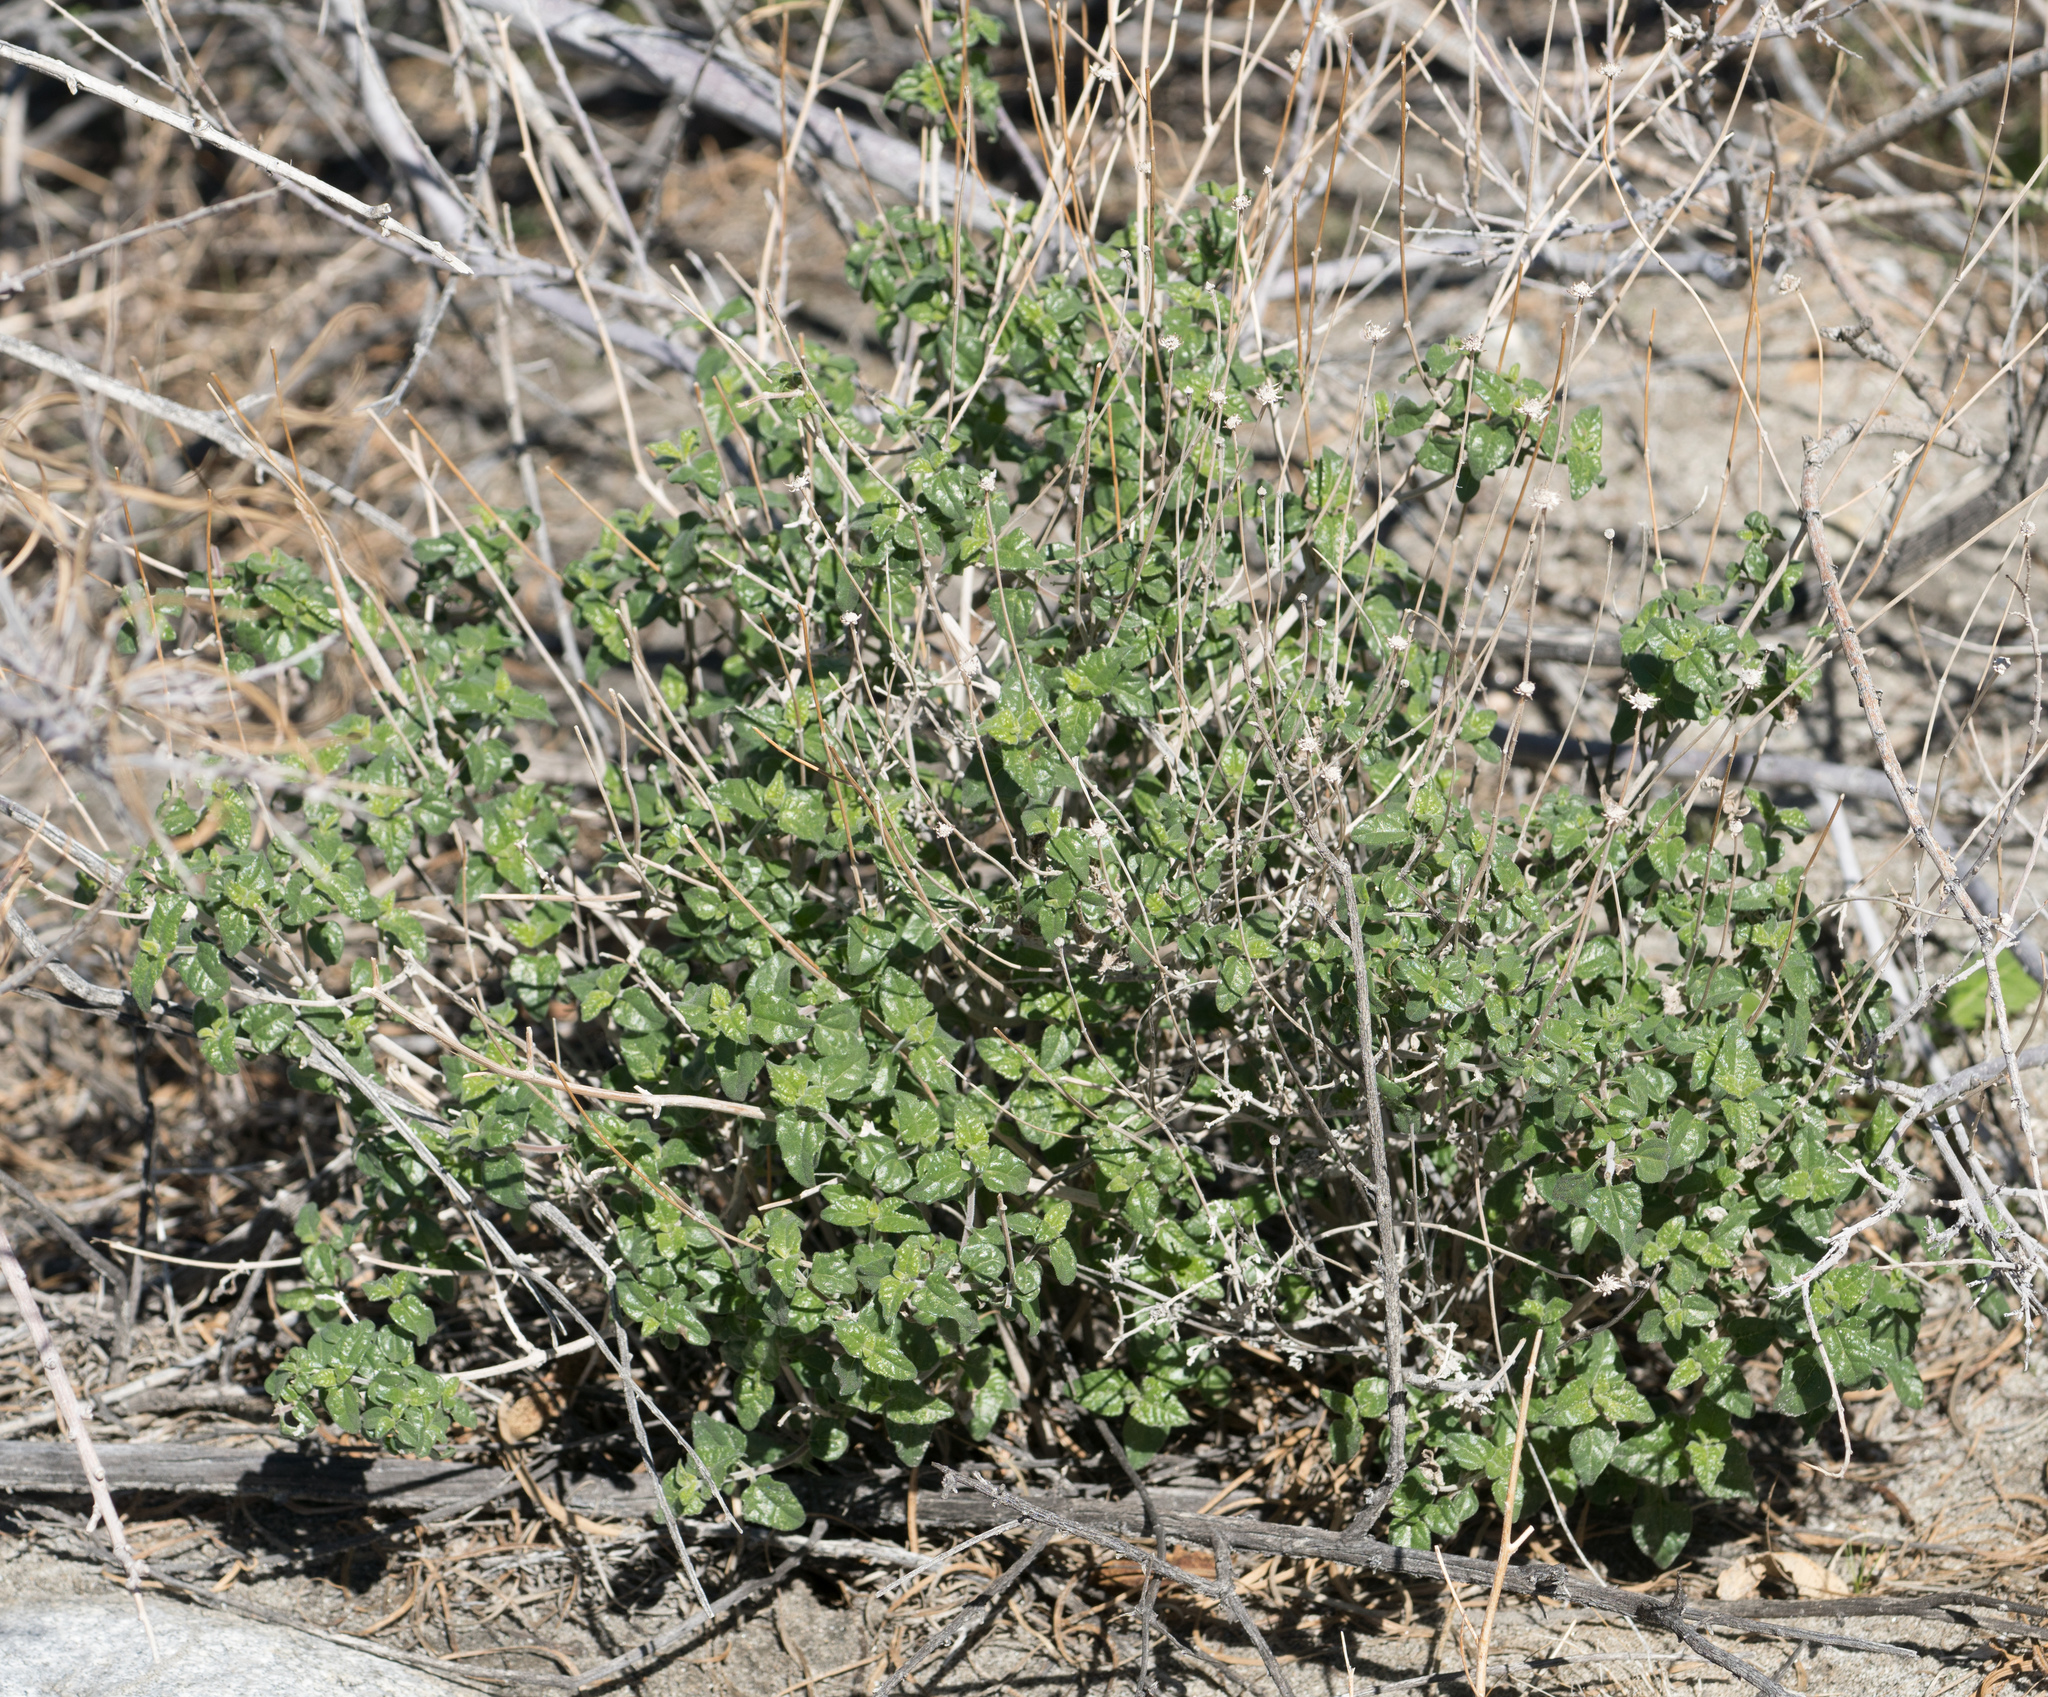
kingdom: Plantae
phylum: Tracheophyta
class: Magnoliopsida
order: Asterales
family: Asteraceae
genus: Bahiopsis
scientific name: Bahiopsis parishii
